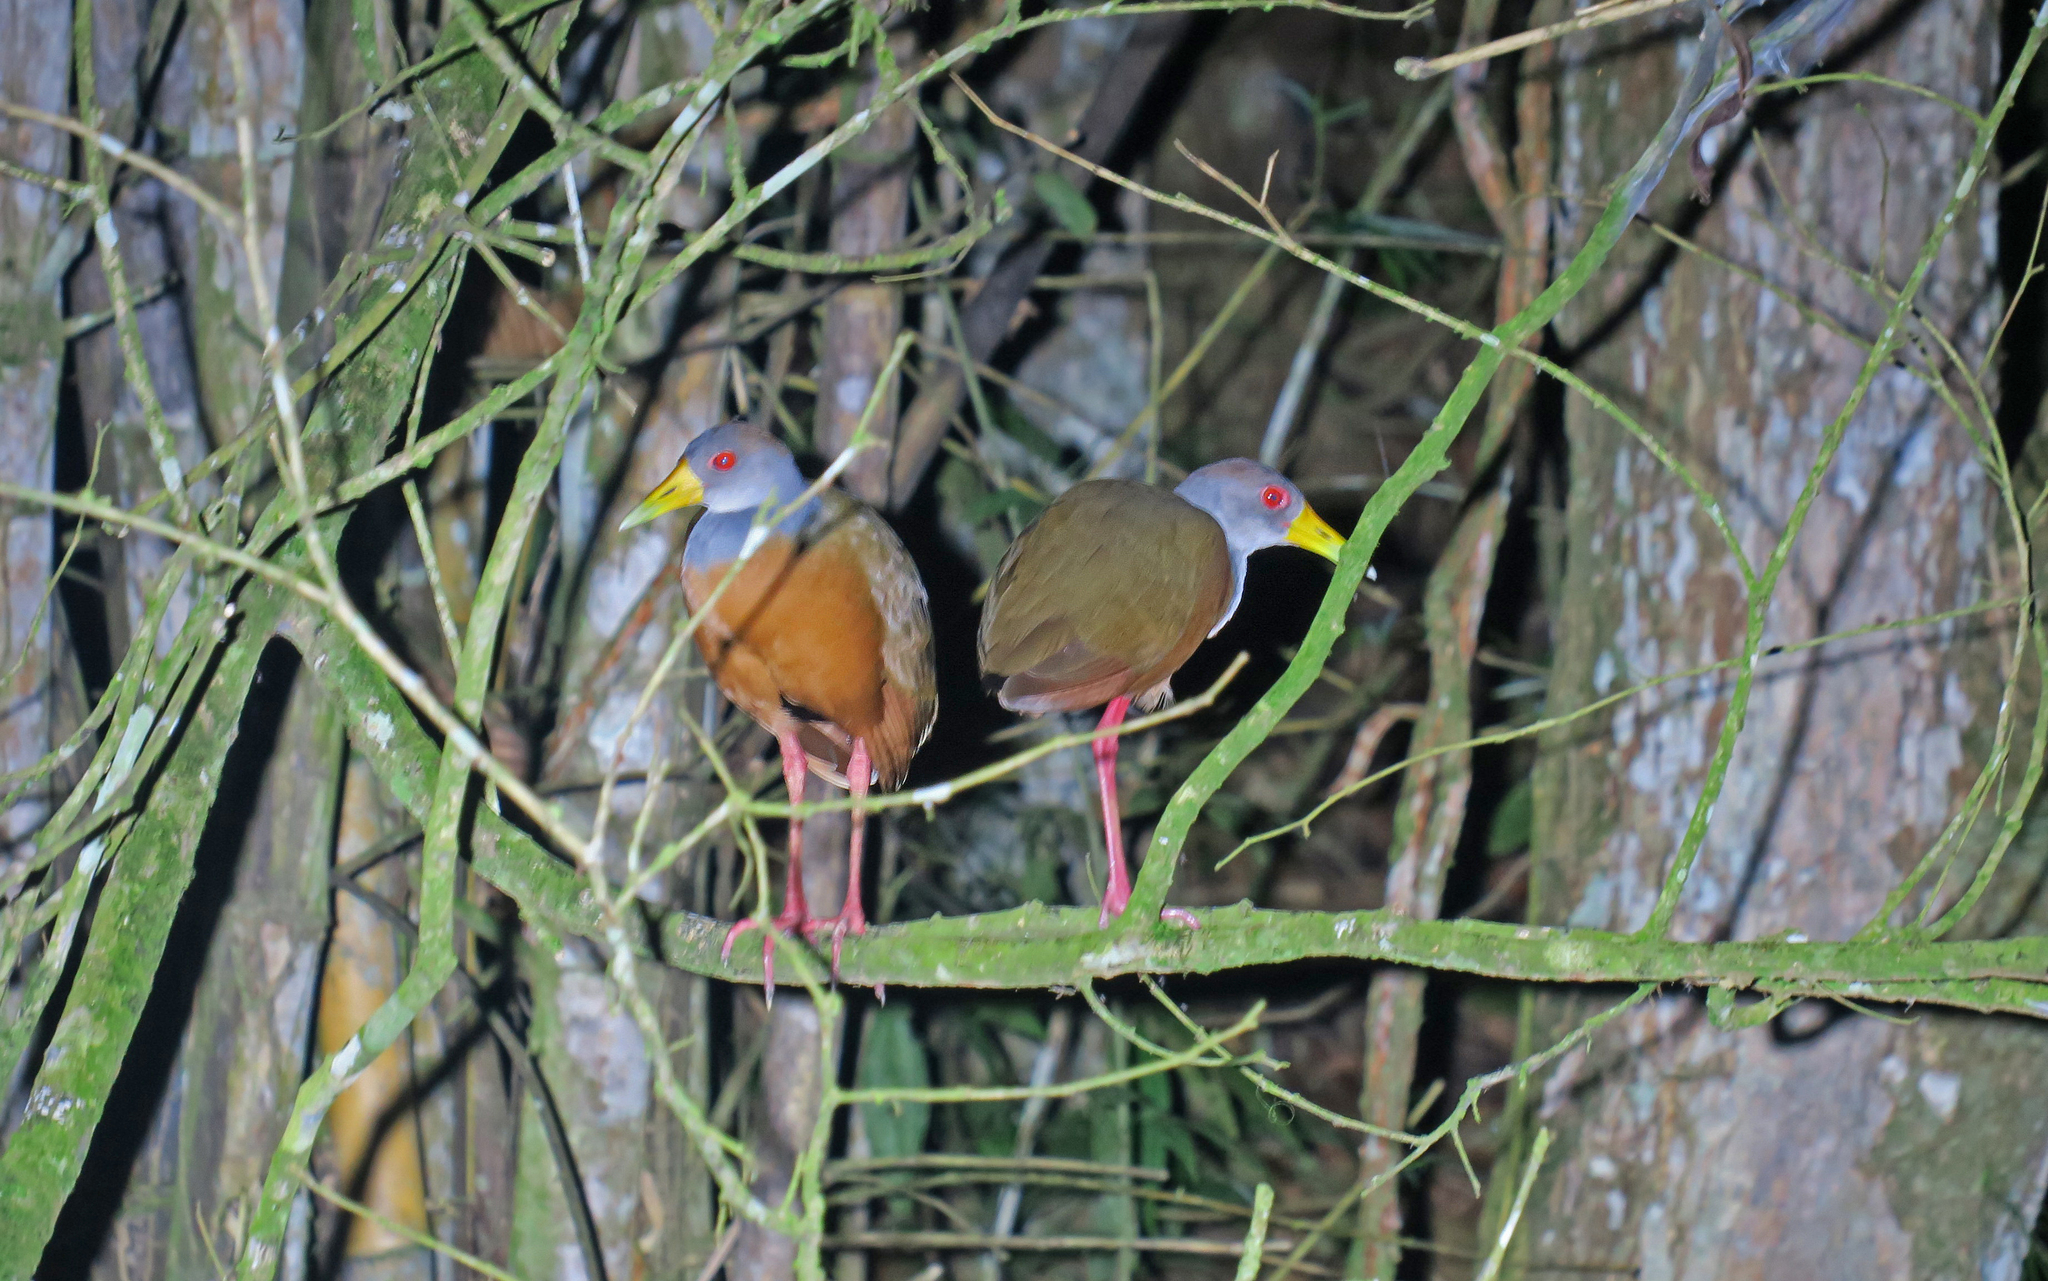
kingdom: Animalia
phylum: Chordata
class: Aves
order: Gruiformes
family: Rallidae
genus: Aramides
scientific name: Aramides cajanea
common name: Gray-necked wood-rail
